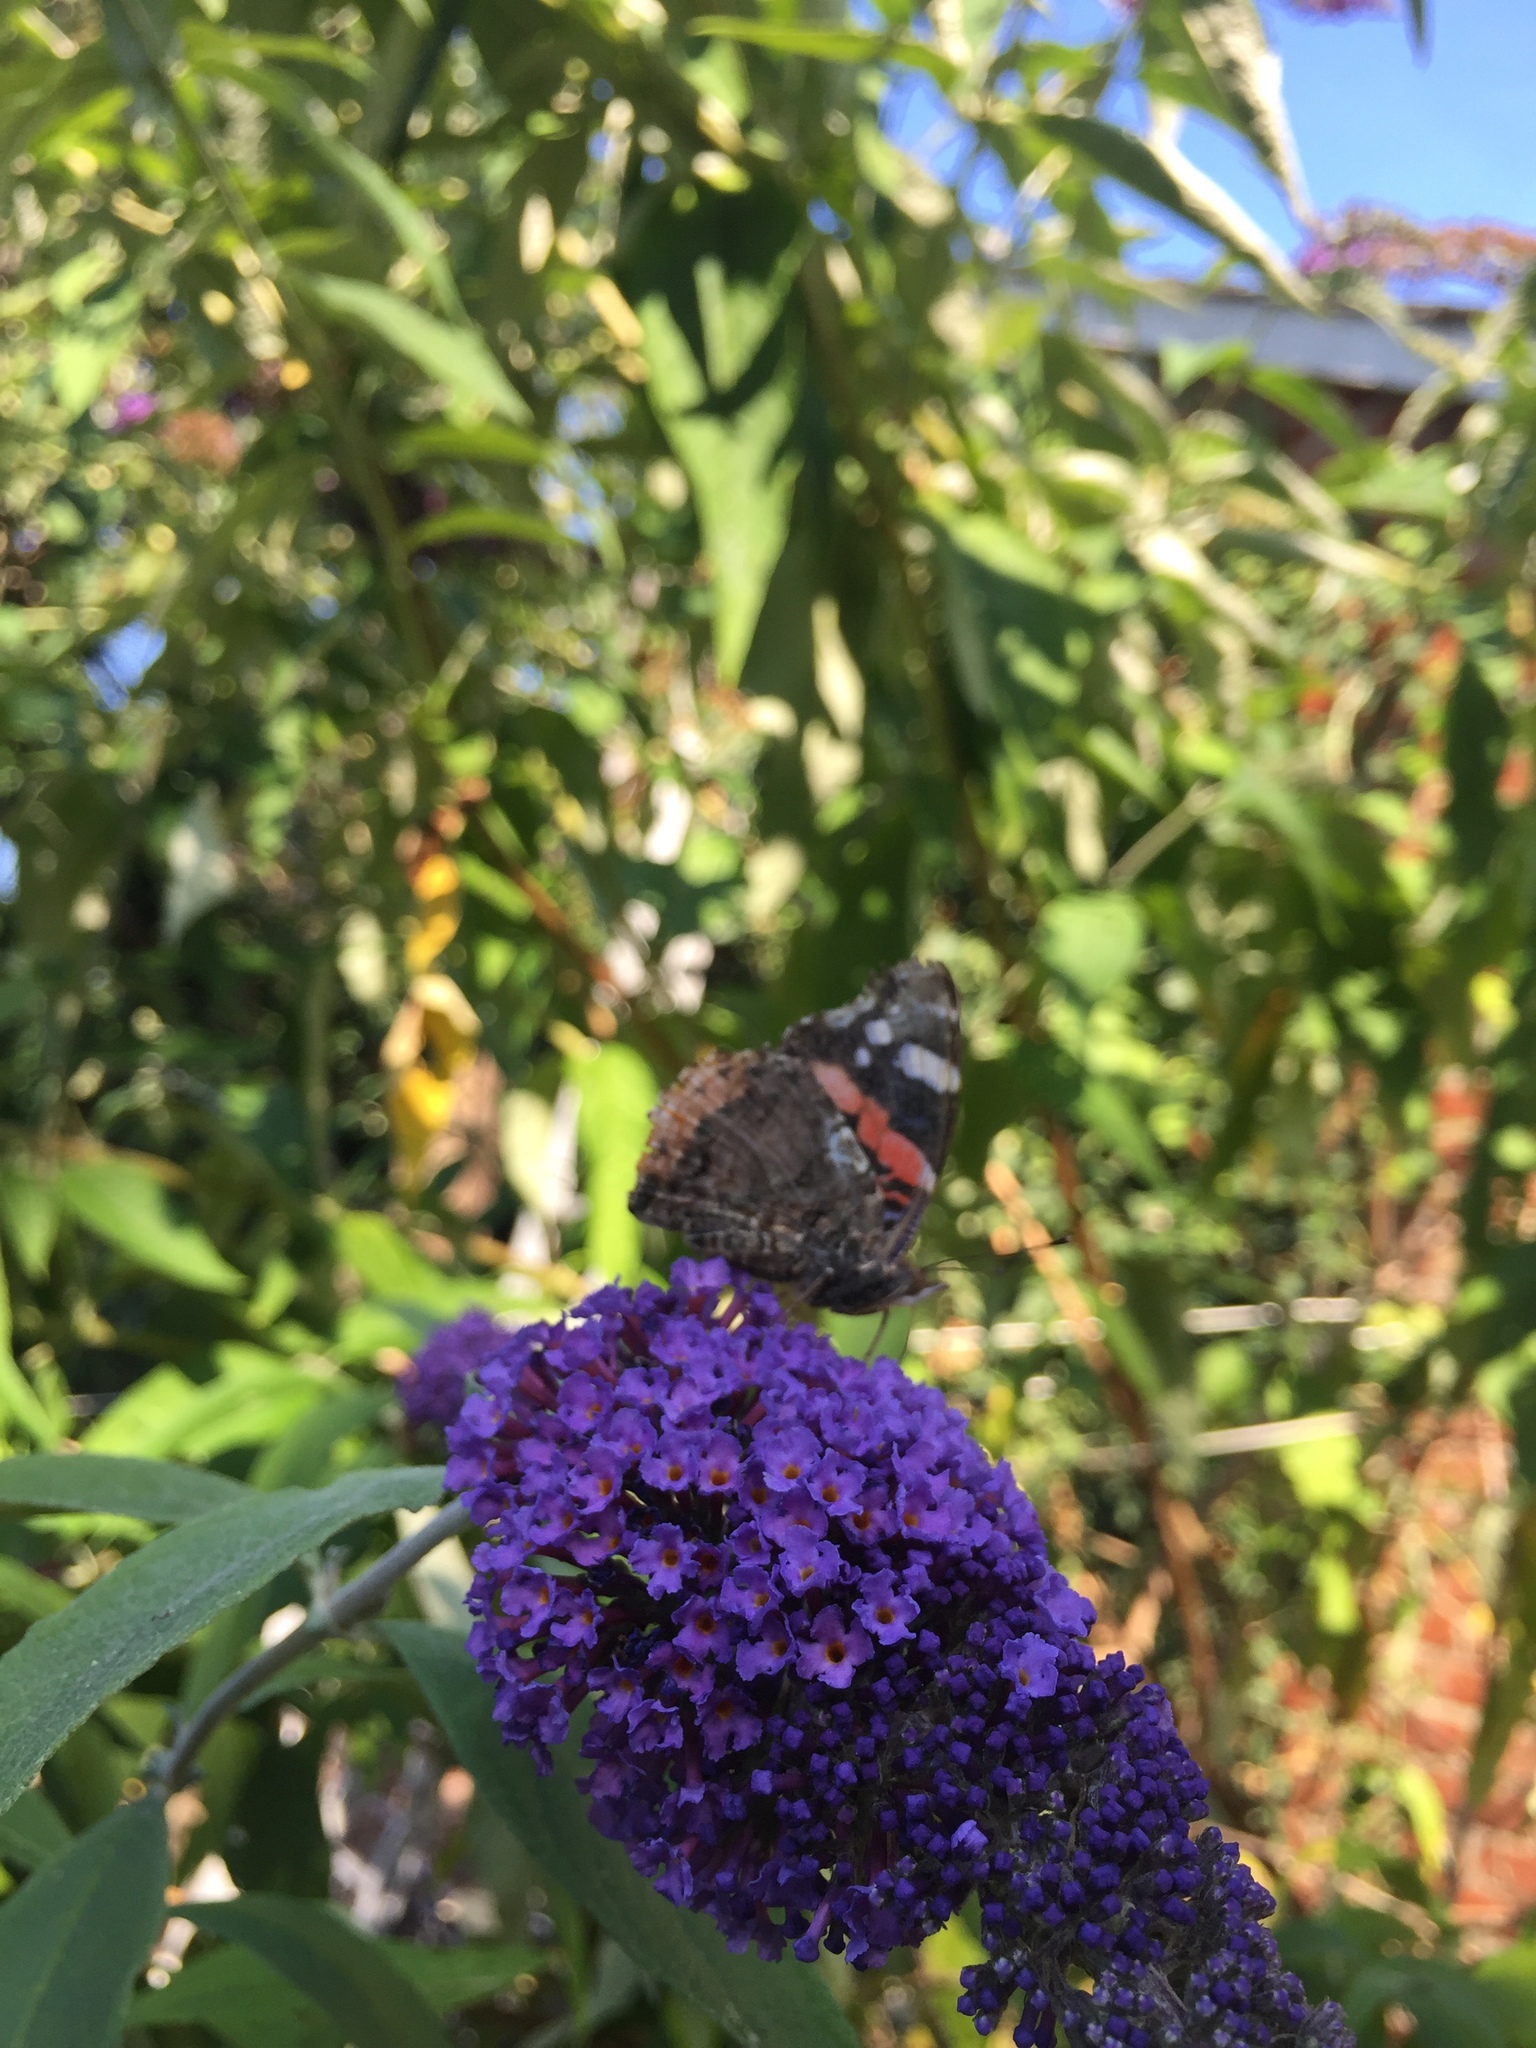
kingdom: Animalia
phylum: Arthropoda
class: Insecta
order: Lepidoptera
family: Nymphalidae
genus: Vanessa
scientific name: Vanessa atalanta
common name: Red admiral
